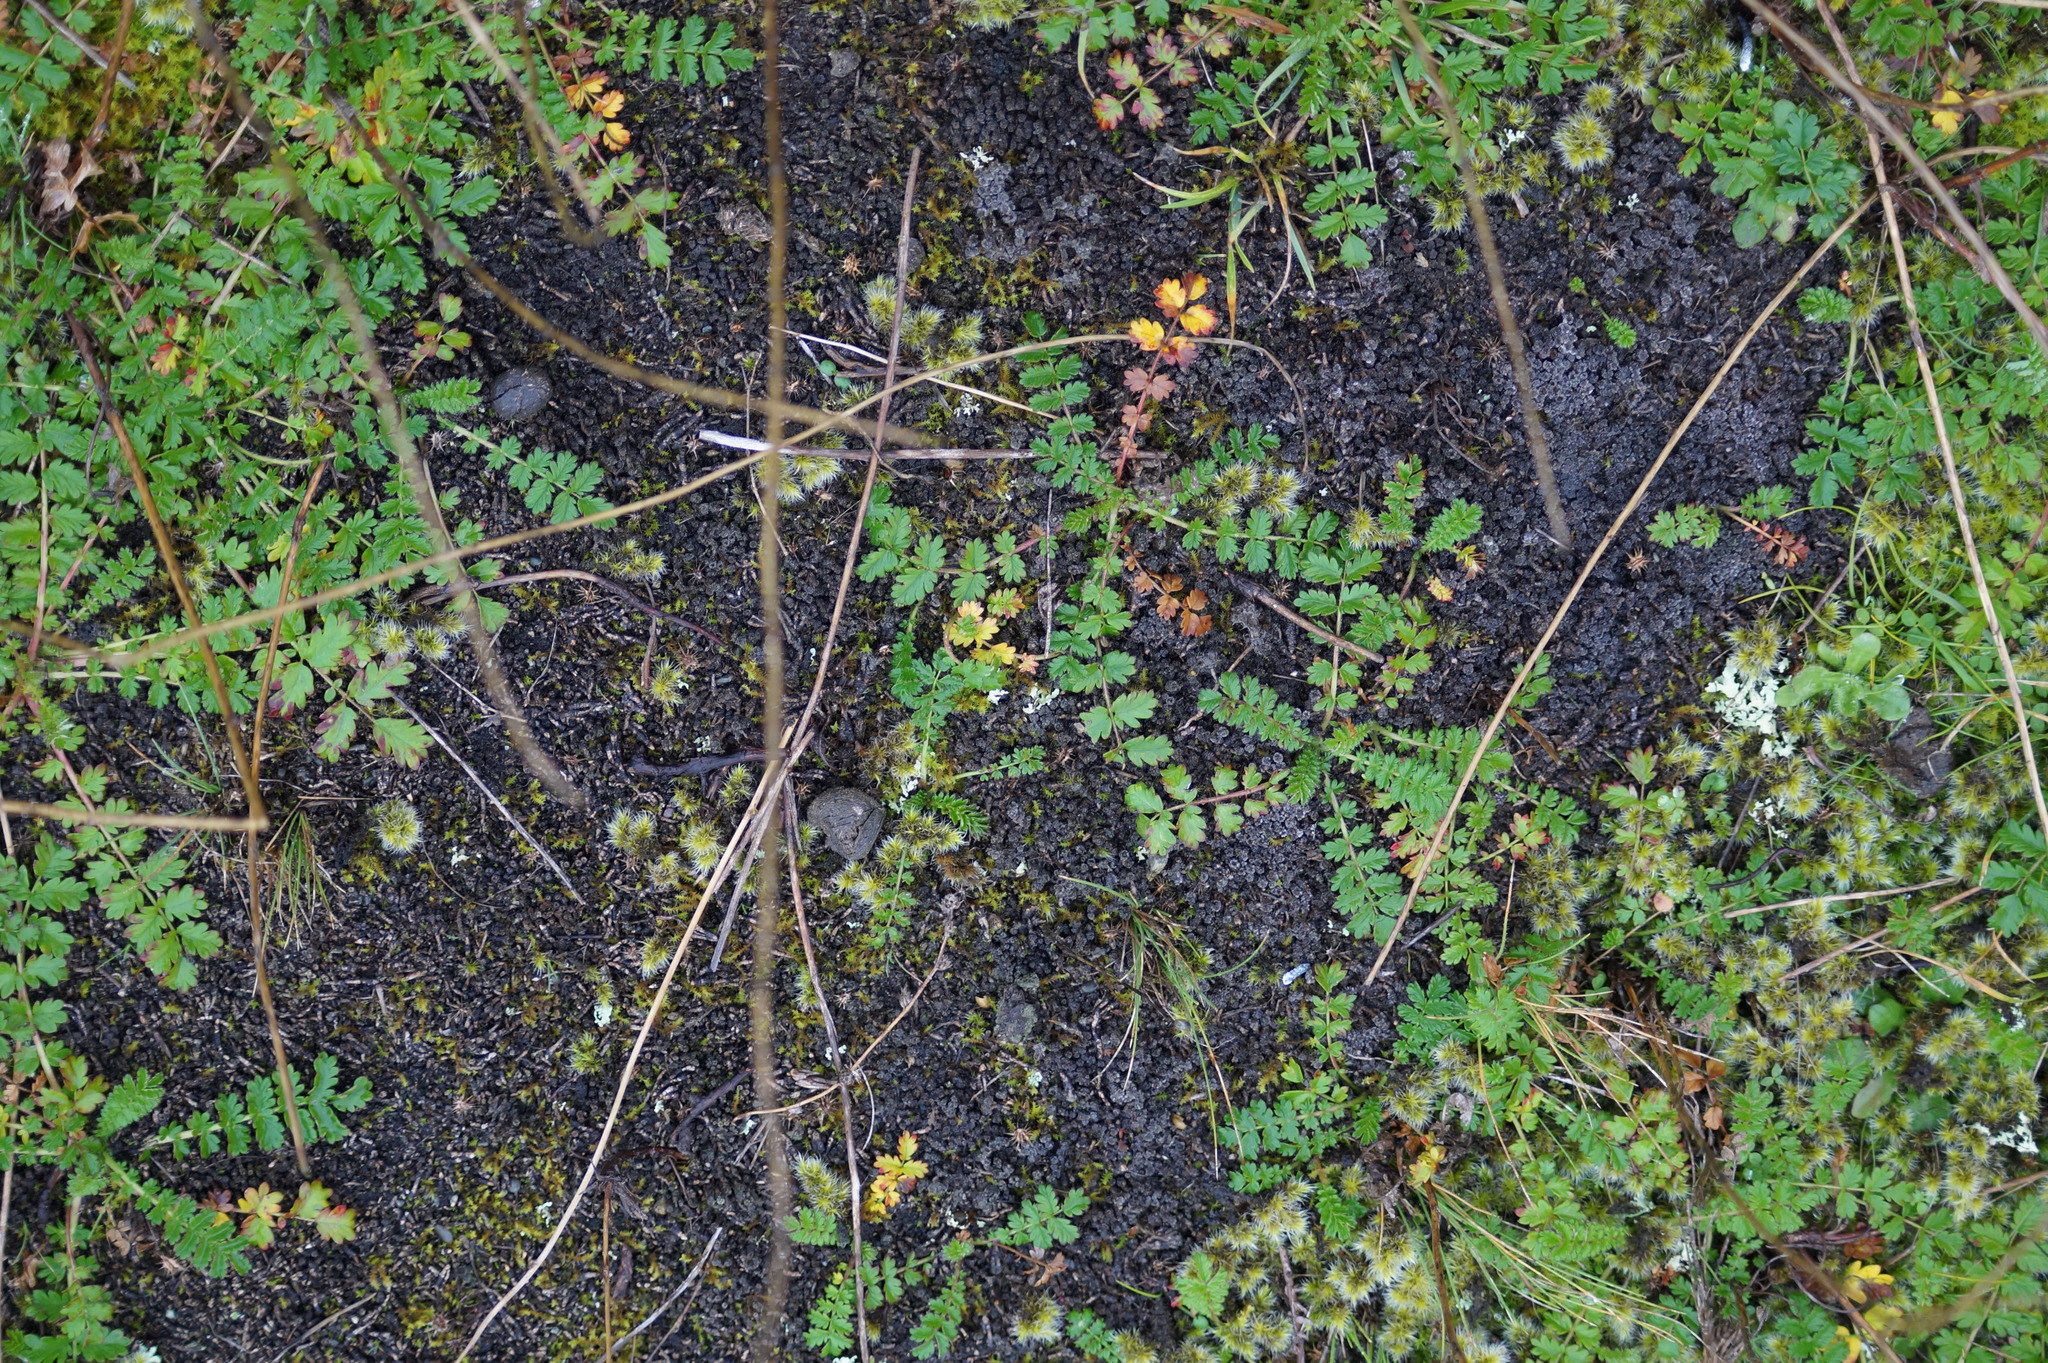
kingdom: Plantae
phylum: Tracheophyta
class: Magnoliopsida
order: Rosales
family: Rosaceae
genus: Acaena
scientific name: Acaena agnipila
